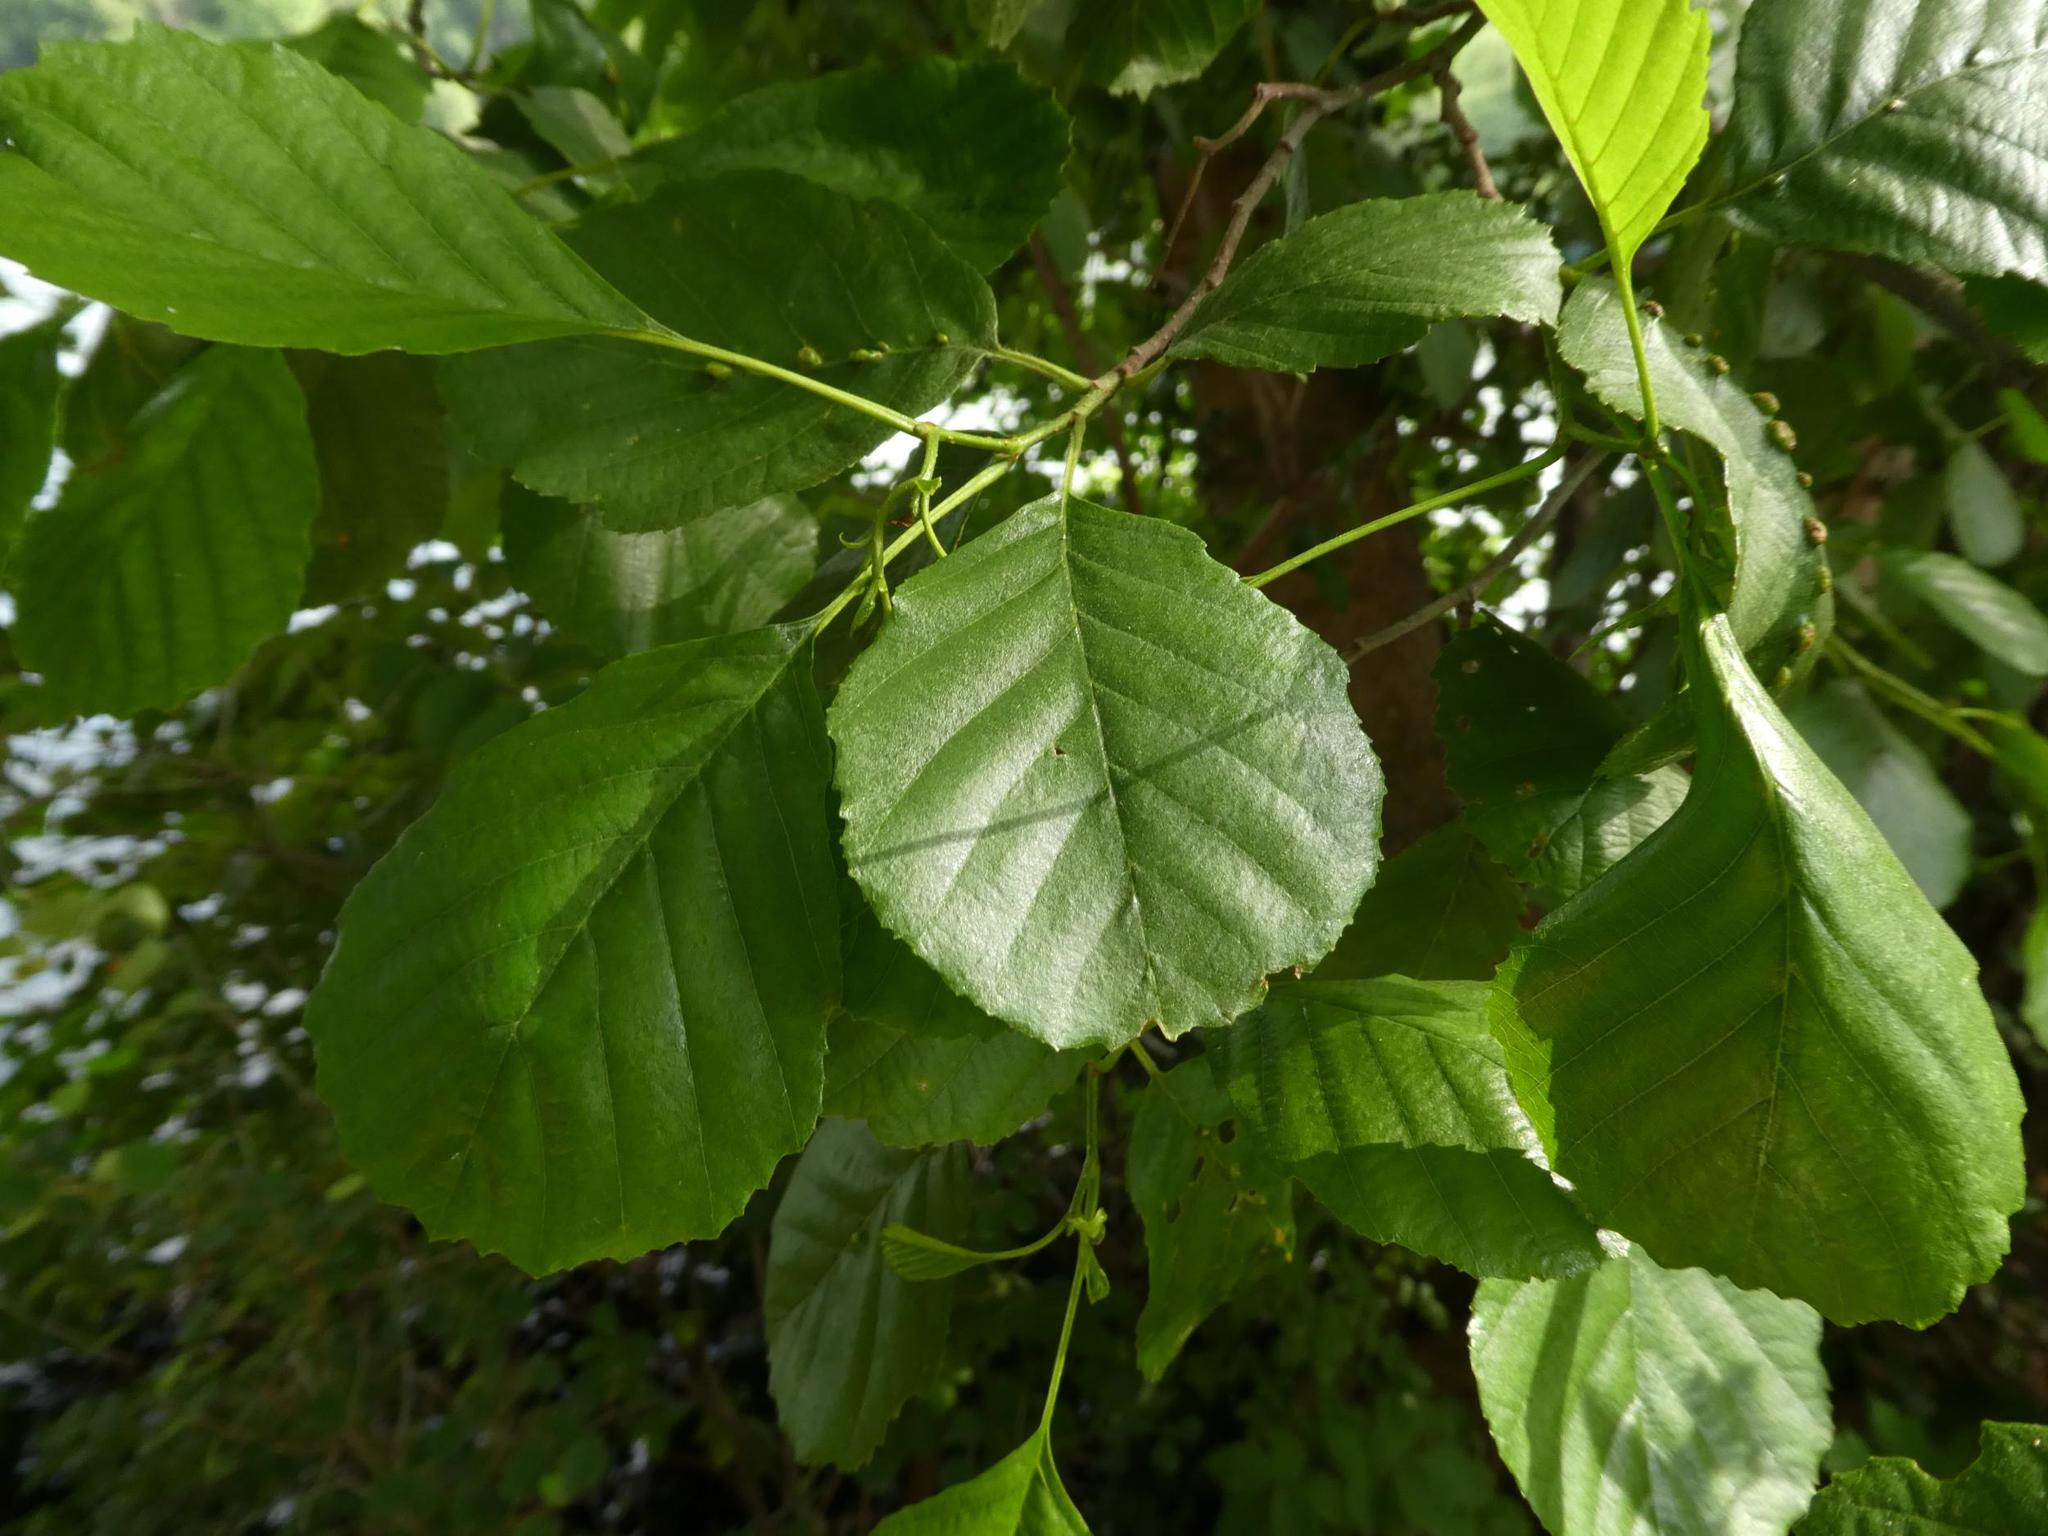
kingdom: Plantae
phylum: Tracheophyta
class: Magnoliopsida
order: Fagales
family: Betulaceae
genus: Alnus
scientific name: Alnus glutinosa
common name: Black alder
